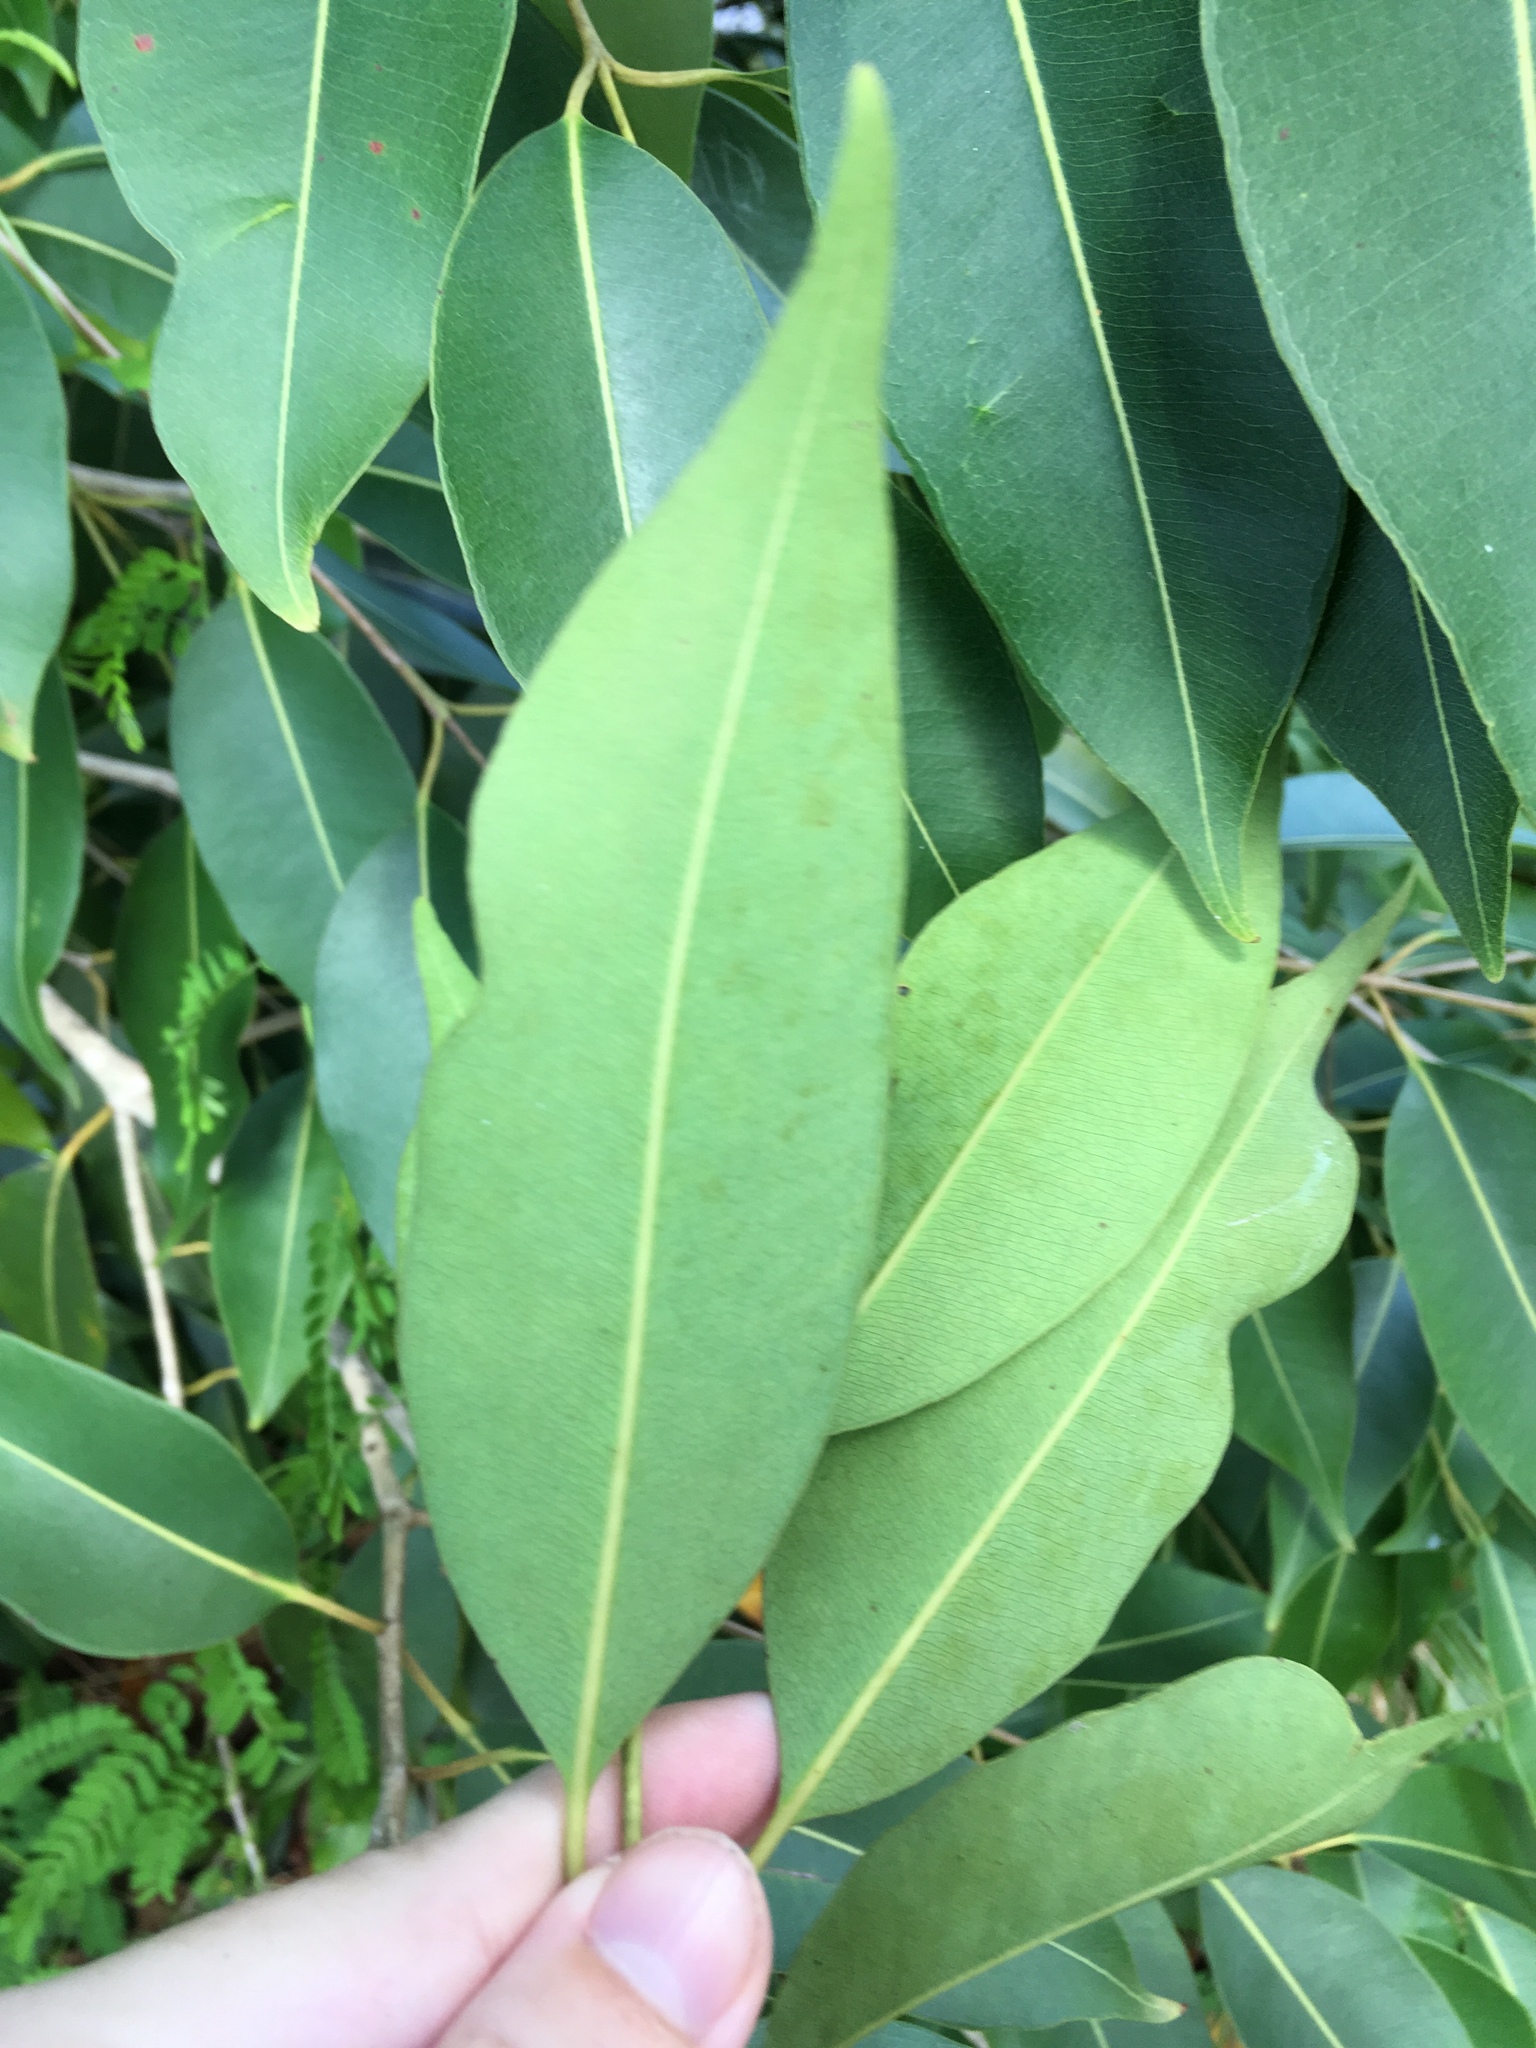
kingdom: Plantae
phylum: Tracheophyta
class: Magnoliopsida
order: Myrtales
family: Myrtaceae
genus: Syzygium
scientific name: Syzygium cumini
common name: Java plum
